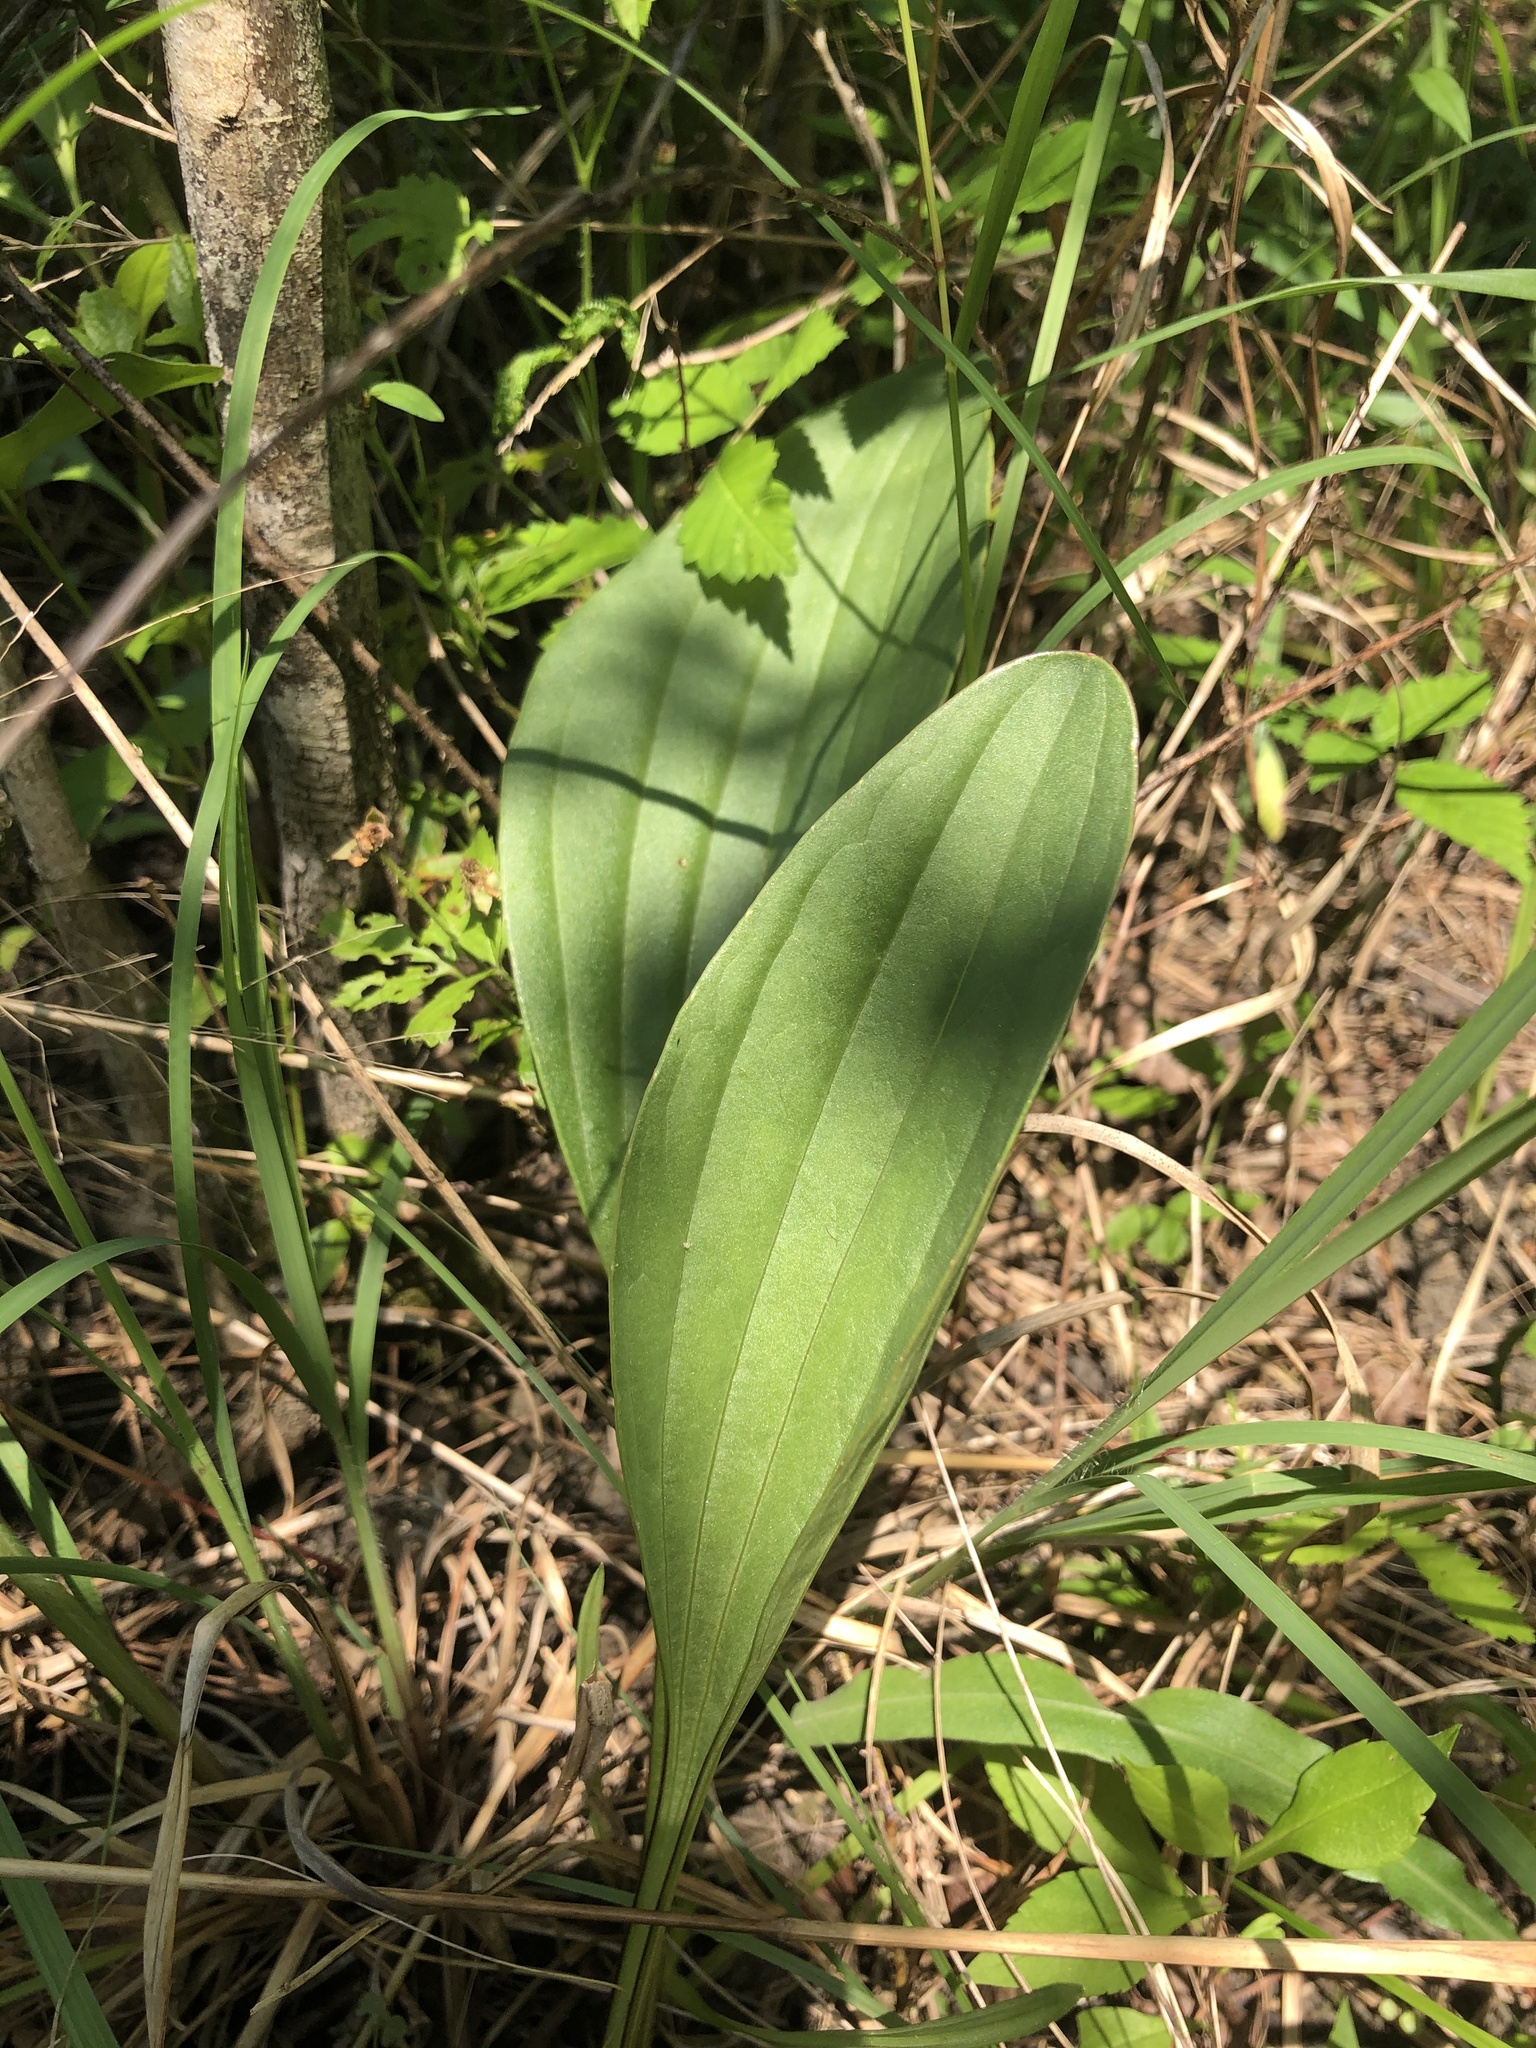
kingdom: Plantae
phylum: Tracheophyta
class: Magnoliopsida
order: Asterales
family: Asteraceae
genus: Arnoglossum
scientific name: Arnoglossum plantagineum
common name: Groove-stemmed indian-plantain
